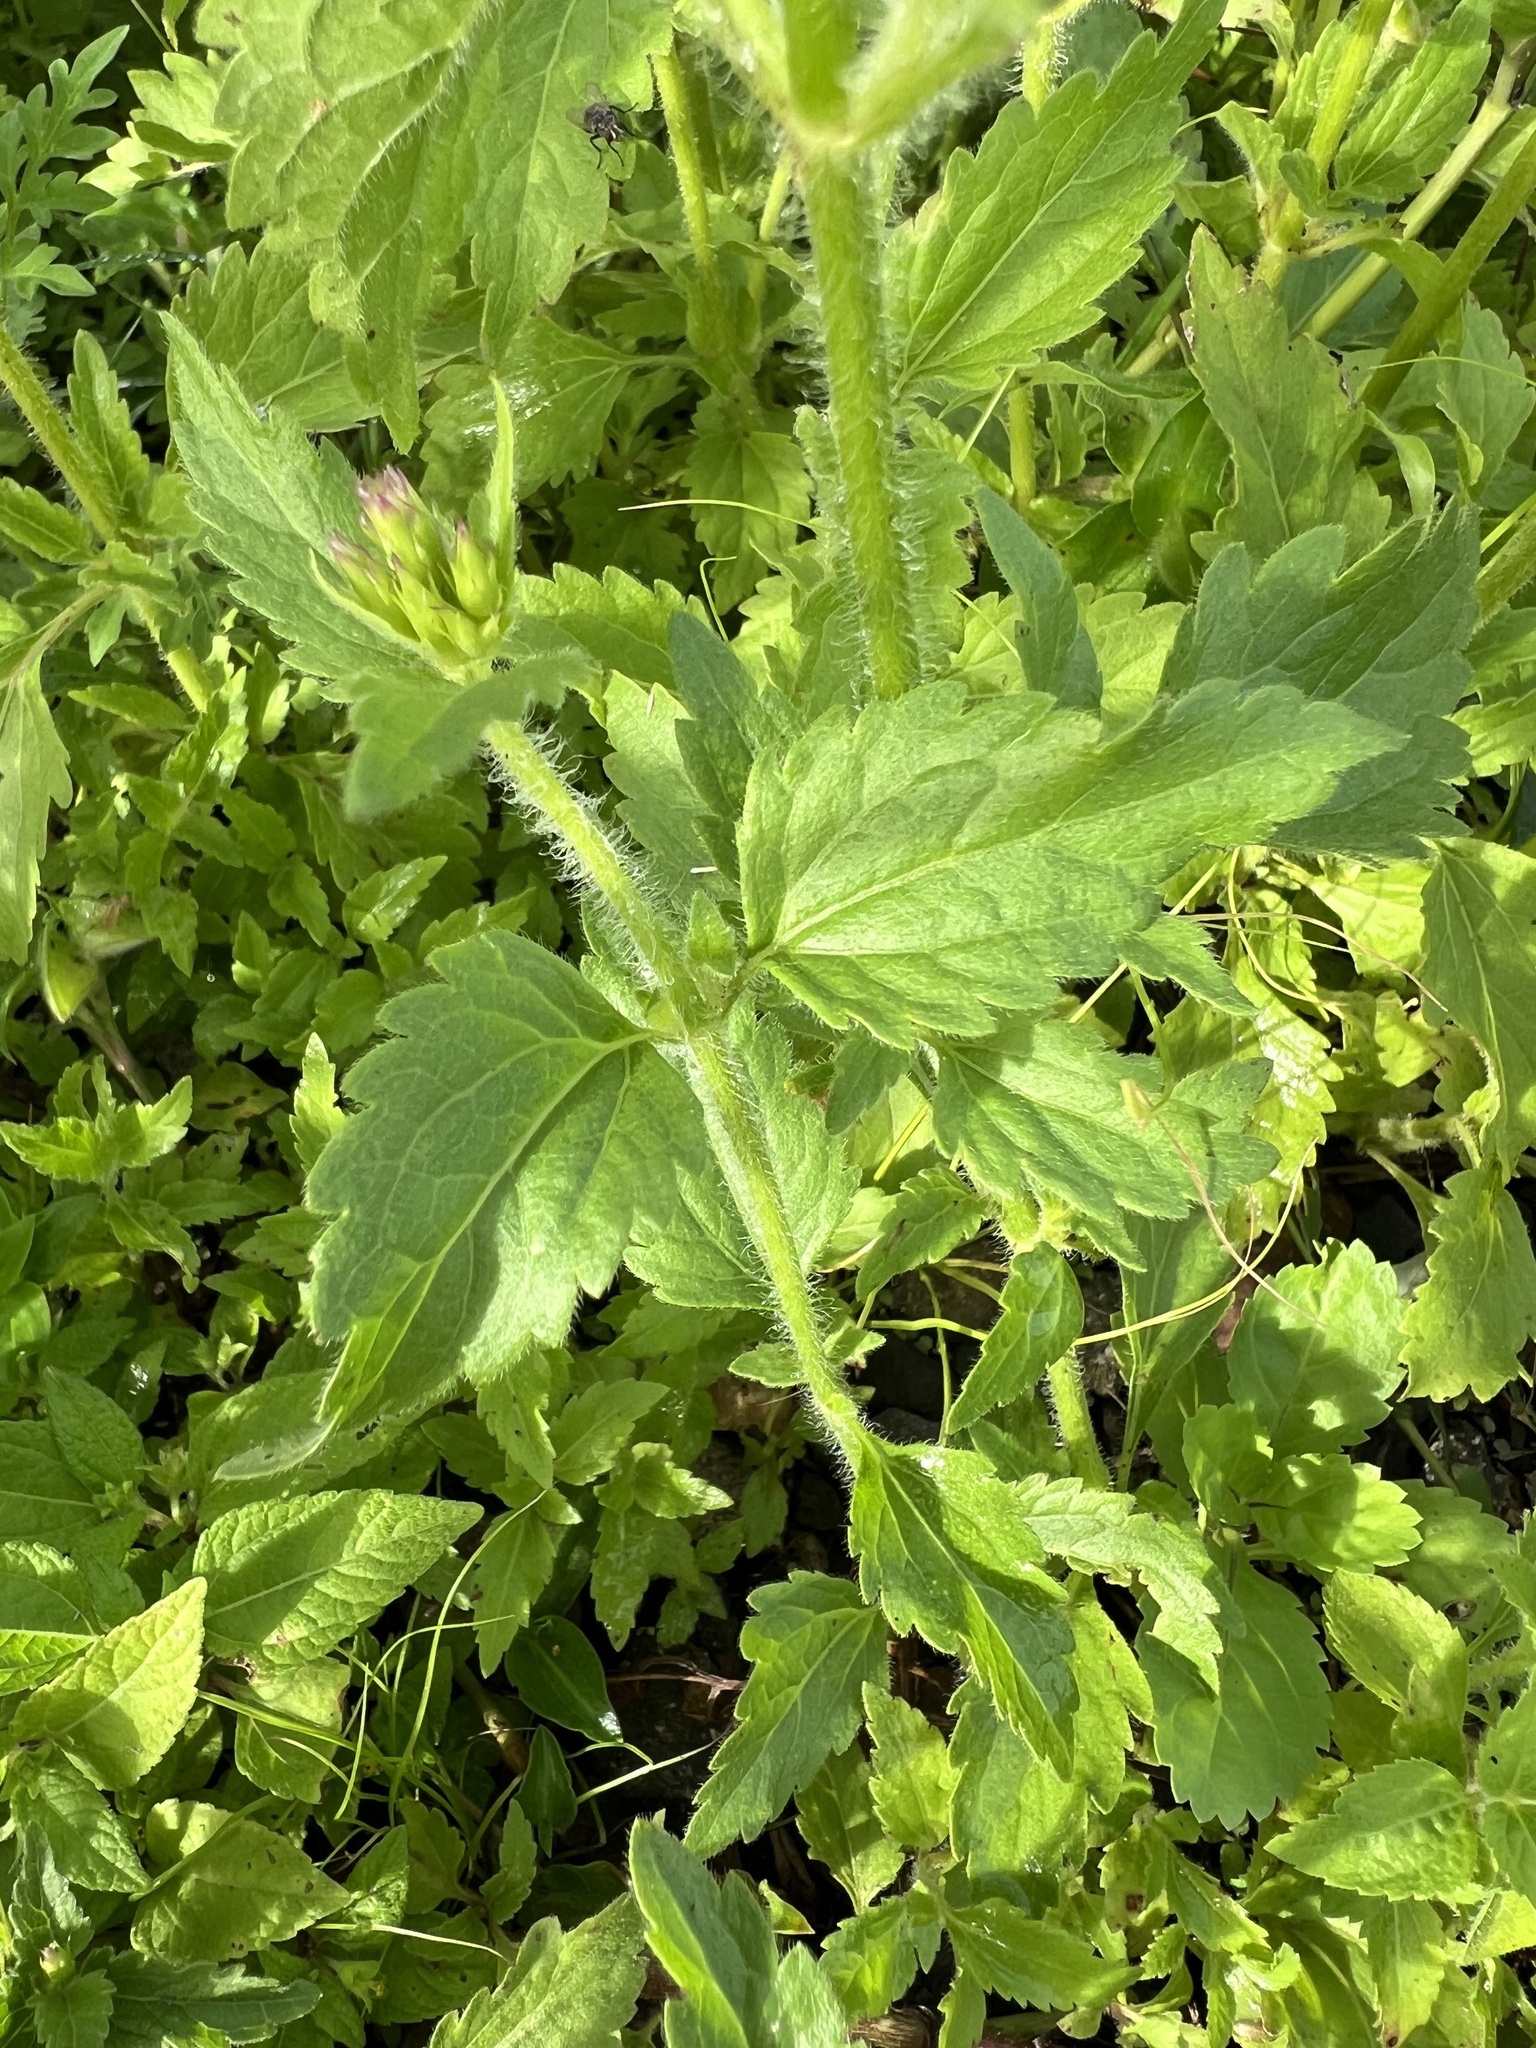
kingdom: Plantae
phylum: Tracheophyta
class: Magnoliopsida
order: Asterales
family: Asteraceae
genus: Praxelis
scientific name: Praxelis clematidea
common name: Praxelis
